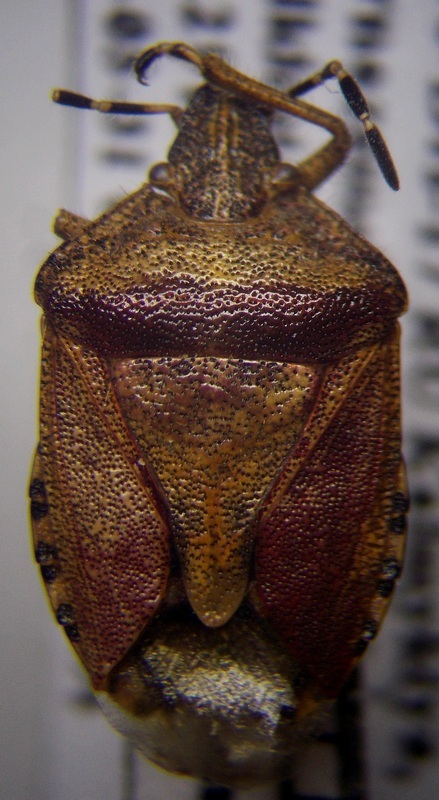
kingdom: Animalia
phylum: Arthropoda
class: Insecta
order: Hemiptera
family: Pentatomidae
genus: Dolycoris
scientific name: Dolycoris baccarum
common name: Sloe bug
